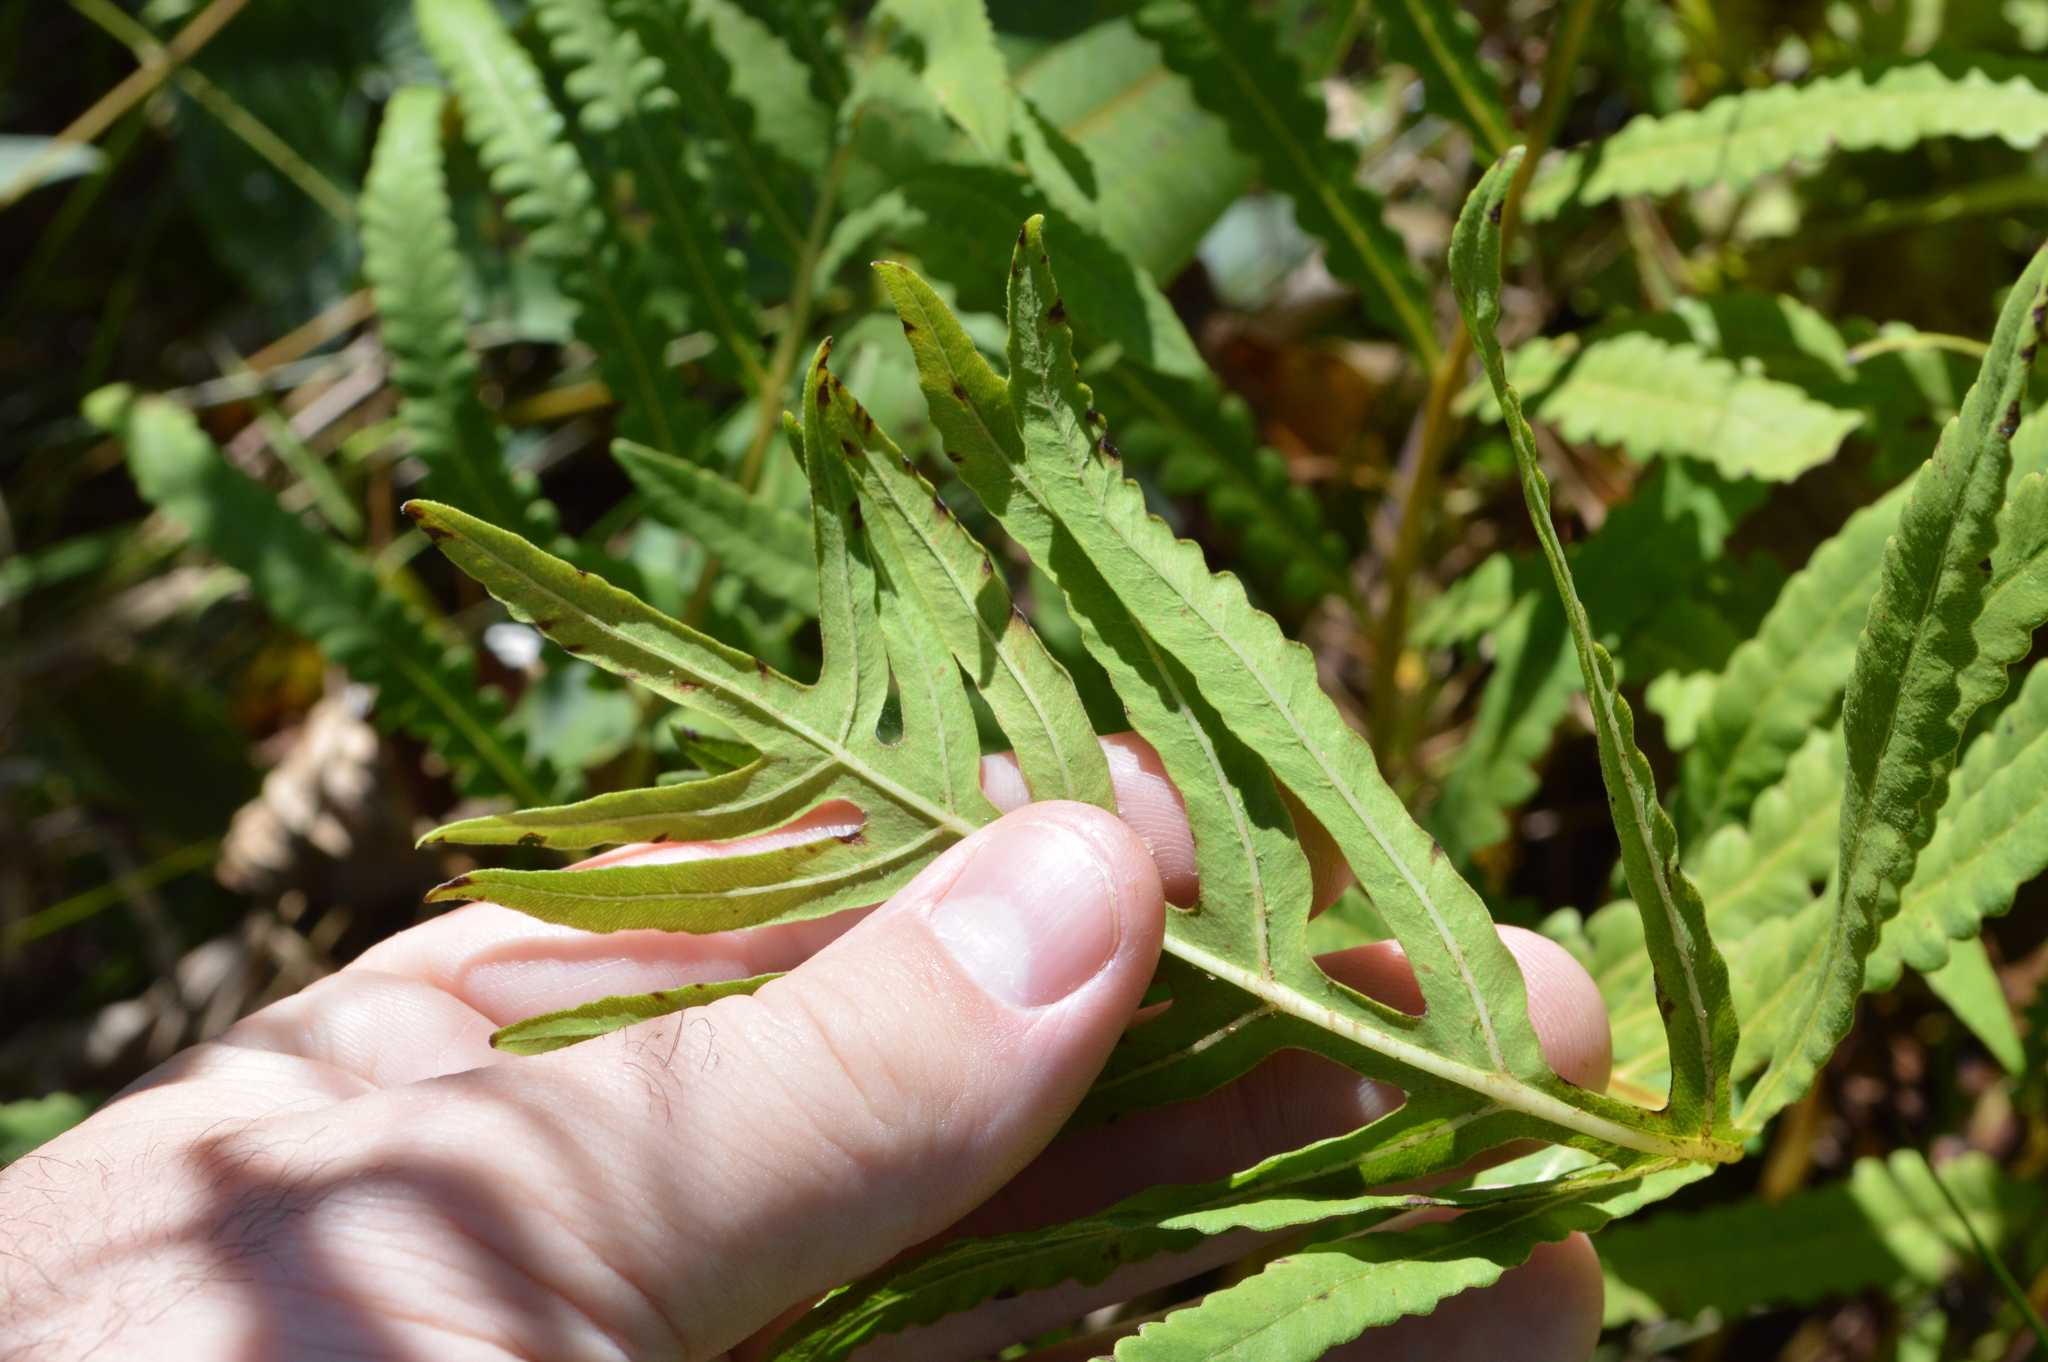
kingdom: Plantae
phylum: Tracheophyta
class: Polypodiopsida
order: Polypodiales
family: Onocleaceae
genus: Onoclea
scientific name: Onoclea sensibilis
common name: Sensitive fern
